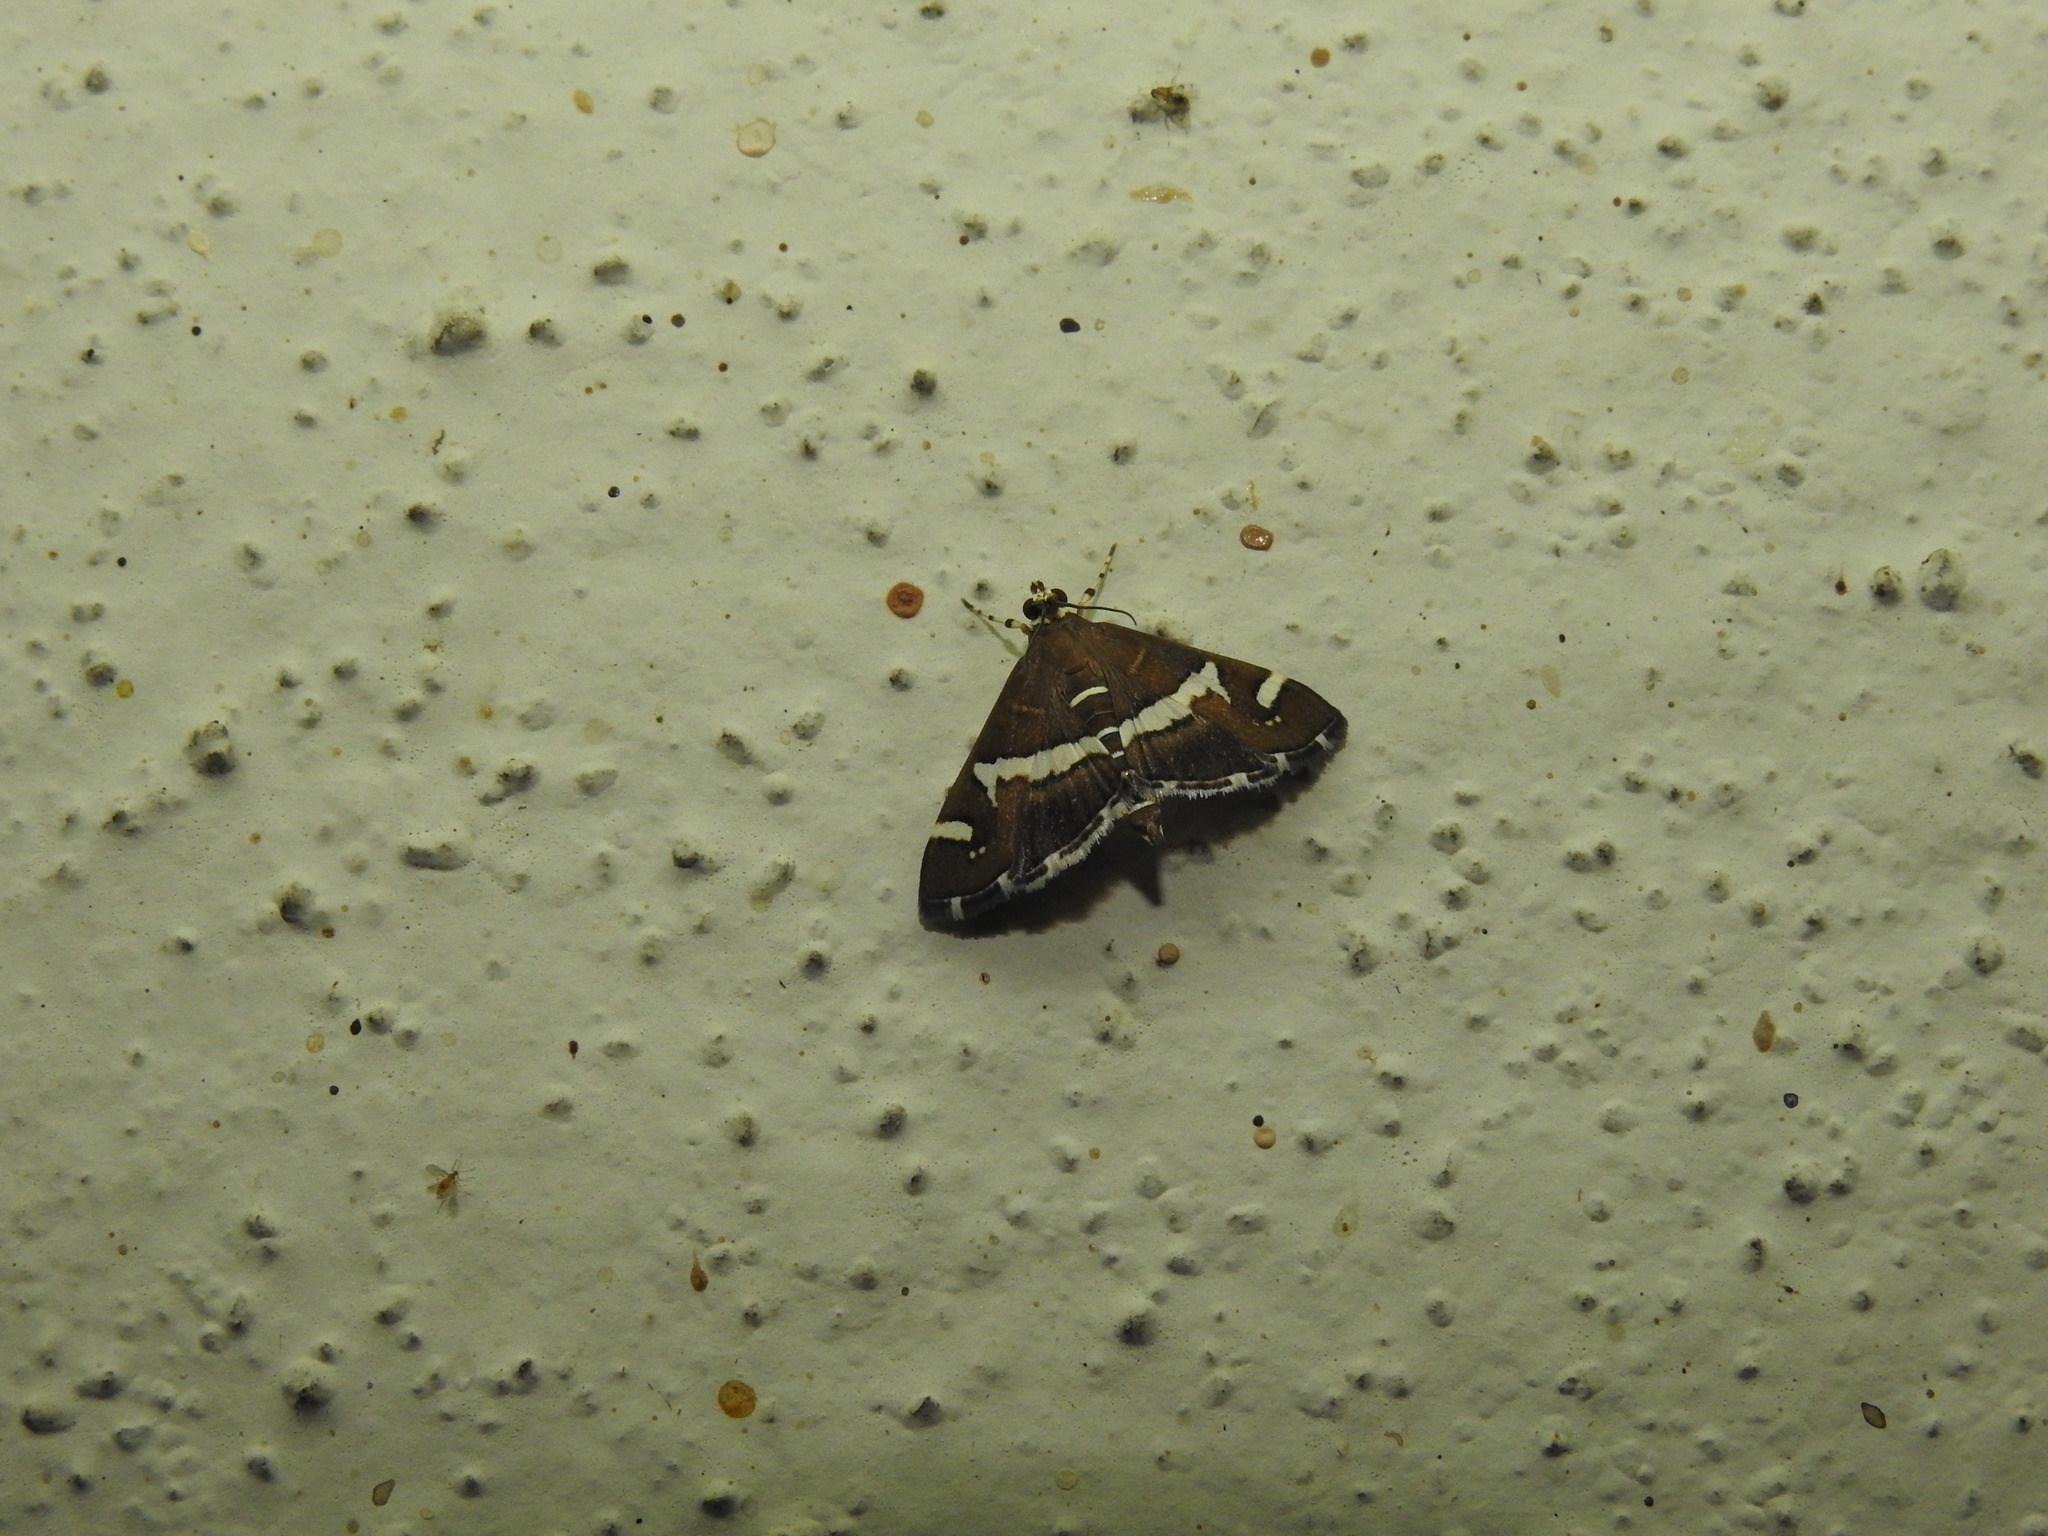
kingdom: Animalia
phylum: Arthropoda
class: Insecta
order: Lepidoptera
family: Crambidae
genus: Spoladea
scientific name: Spoladea recurvalis
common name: Beet webworm moth
